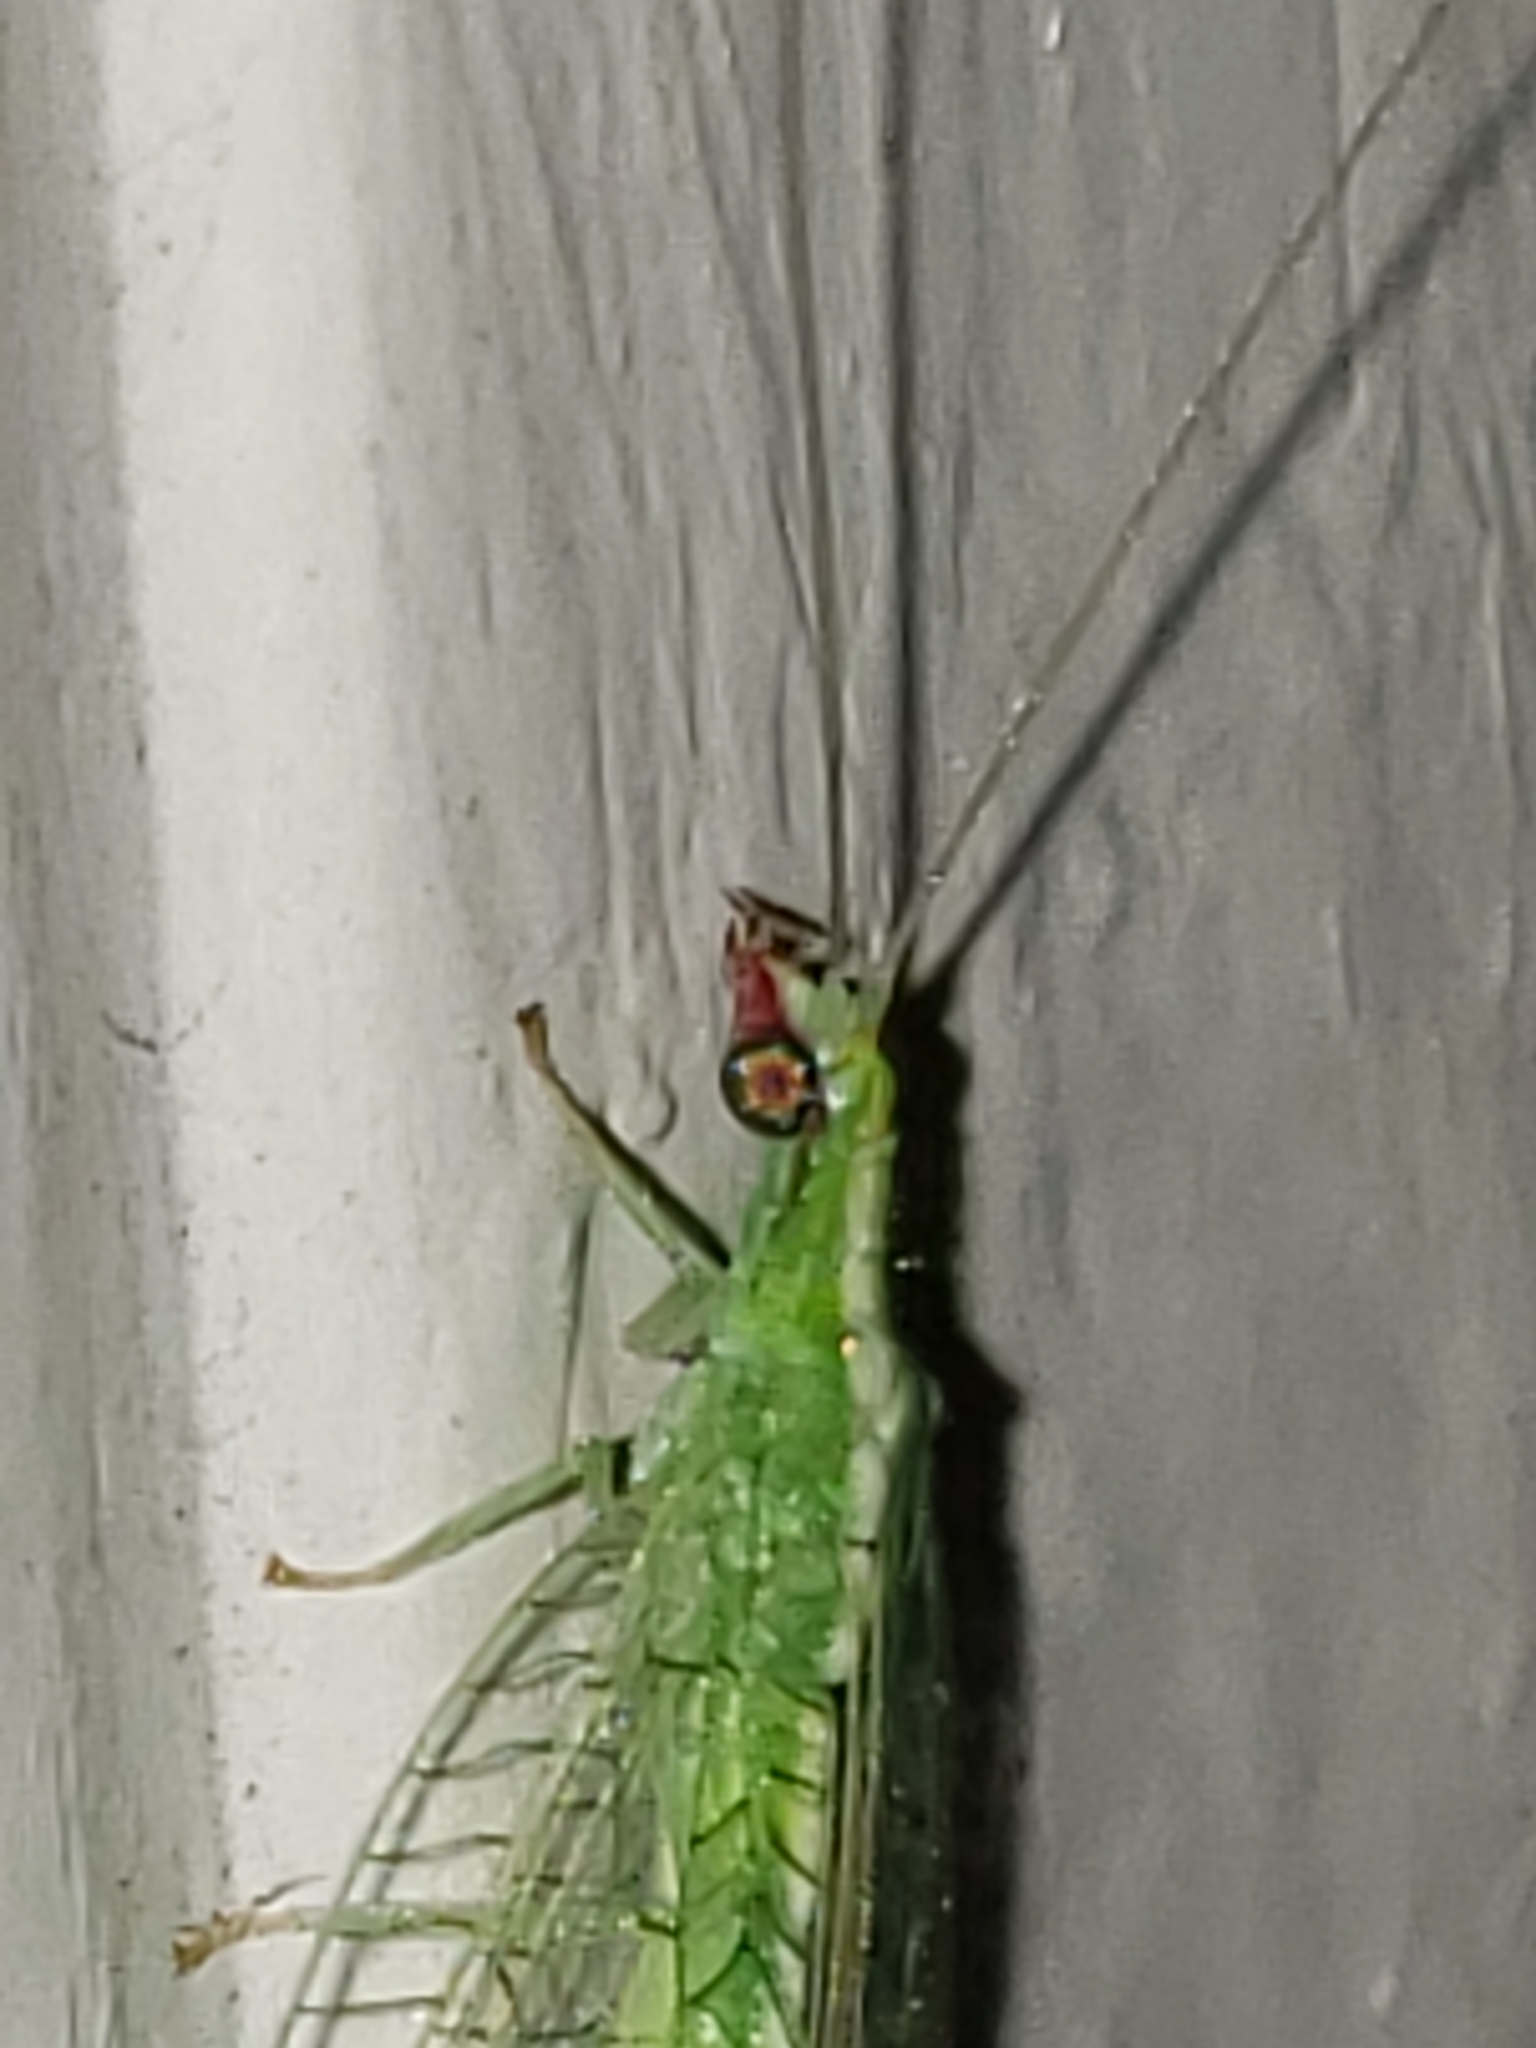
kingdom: Animalia
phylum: Arthropoda
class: Insecta
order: Neuroptera
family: Chrysopidae
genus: Chrysoperla
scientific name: Chrysoperla rufilabris
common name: Red-lipped green lacewing
